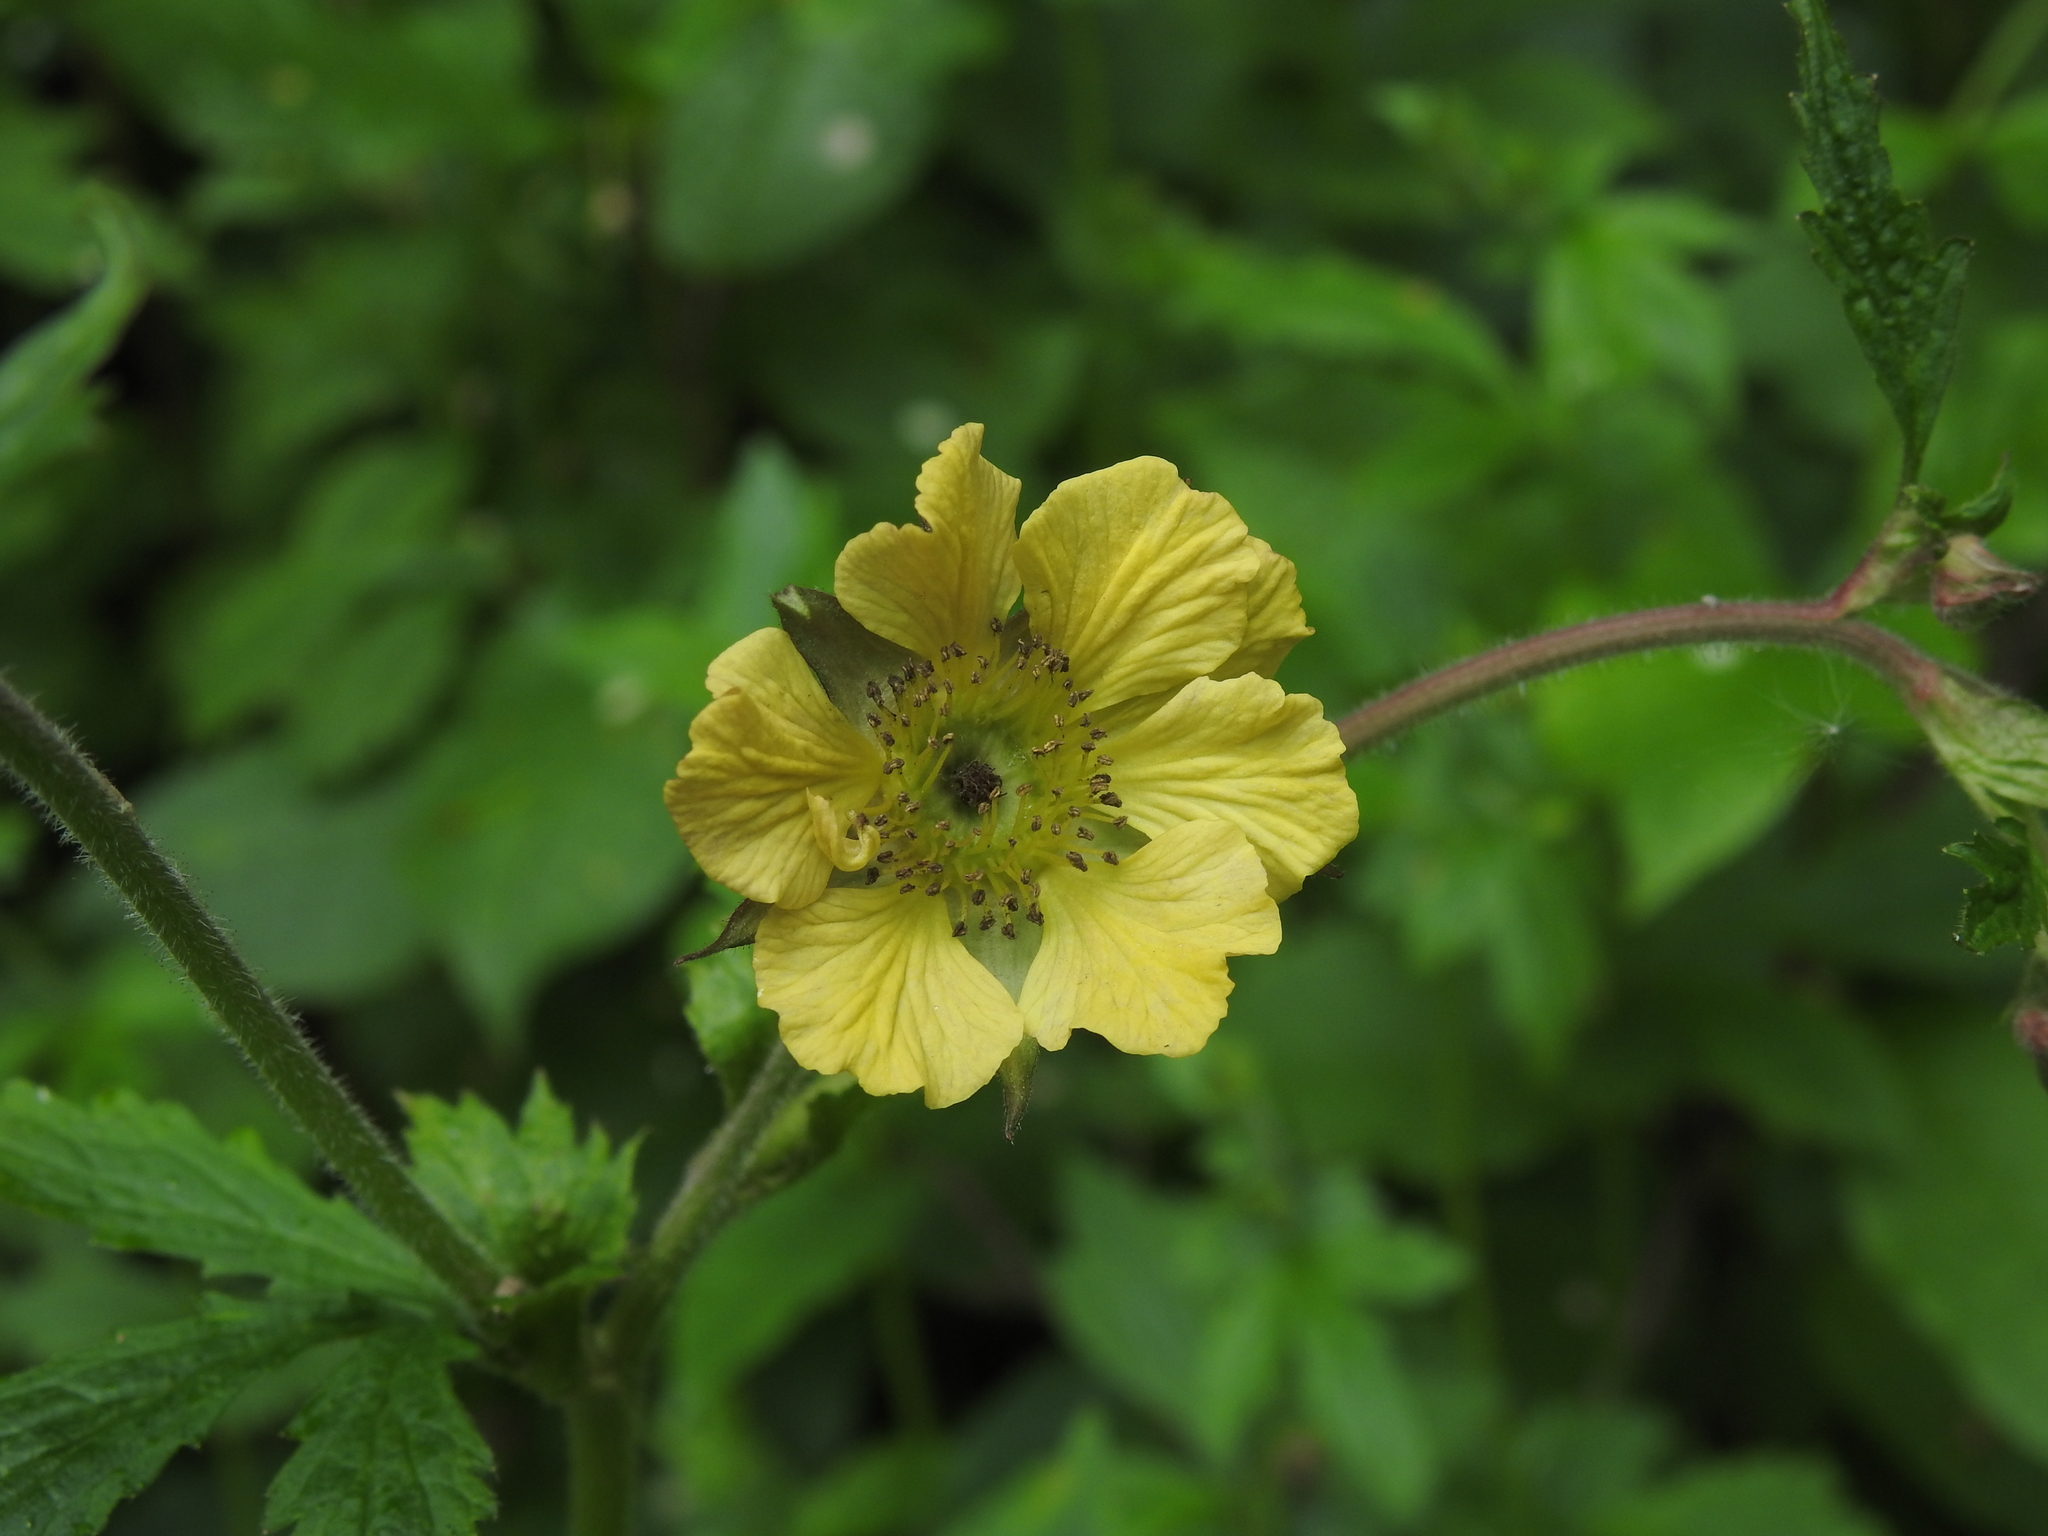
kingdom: Plantae
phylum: Tracheophyta
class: Magnoliopsida
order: Rosales
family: Rosaceae
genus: Geum
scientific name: Geum rivale
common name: Water avens
